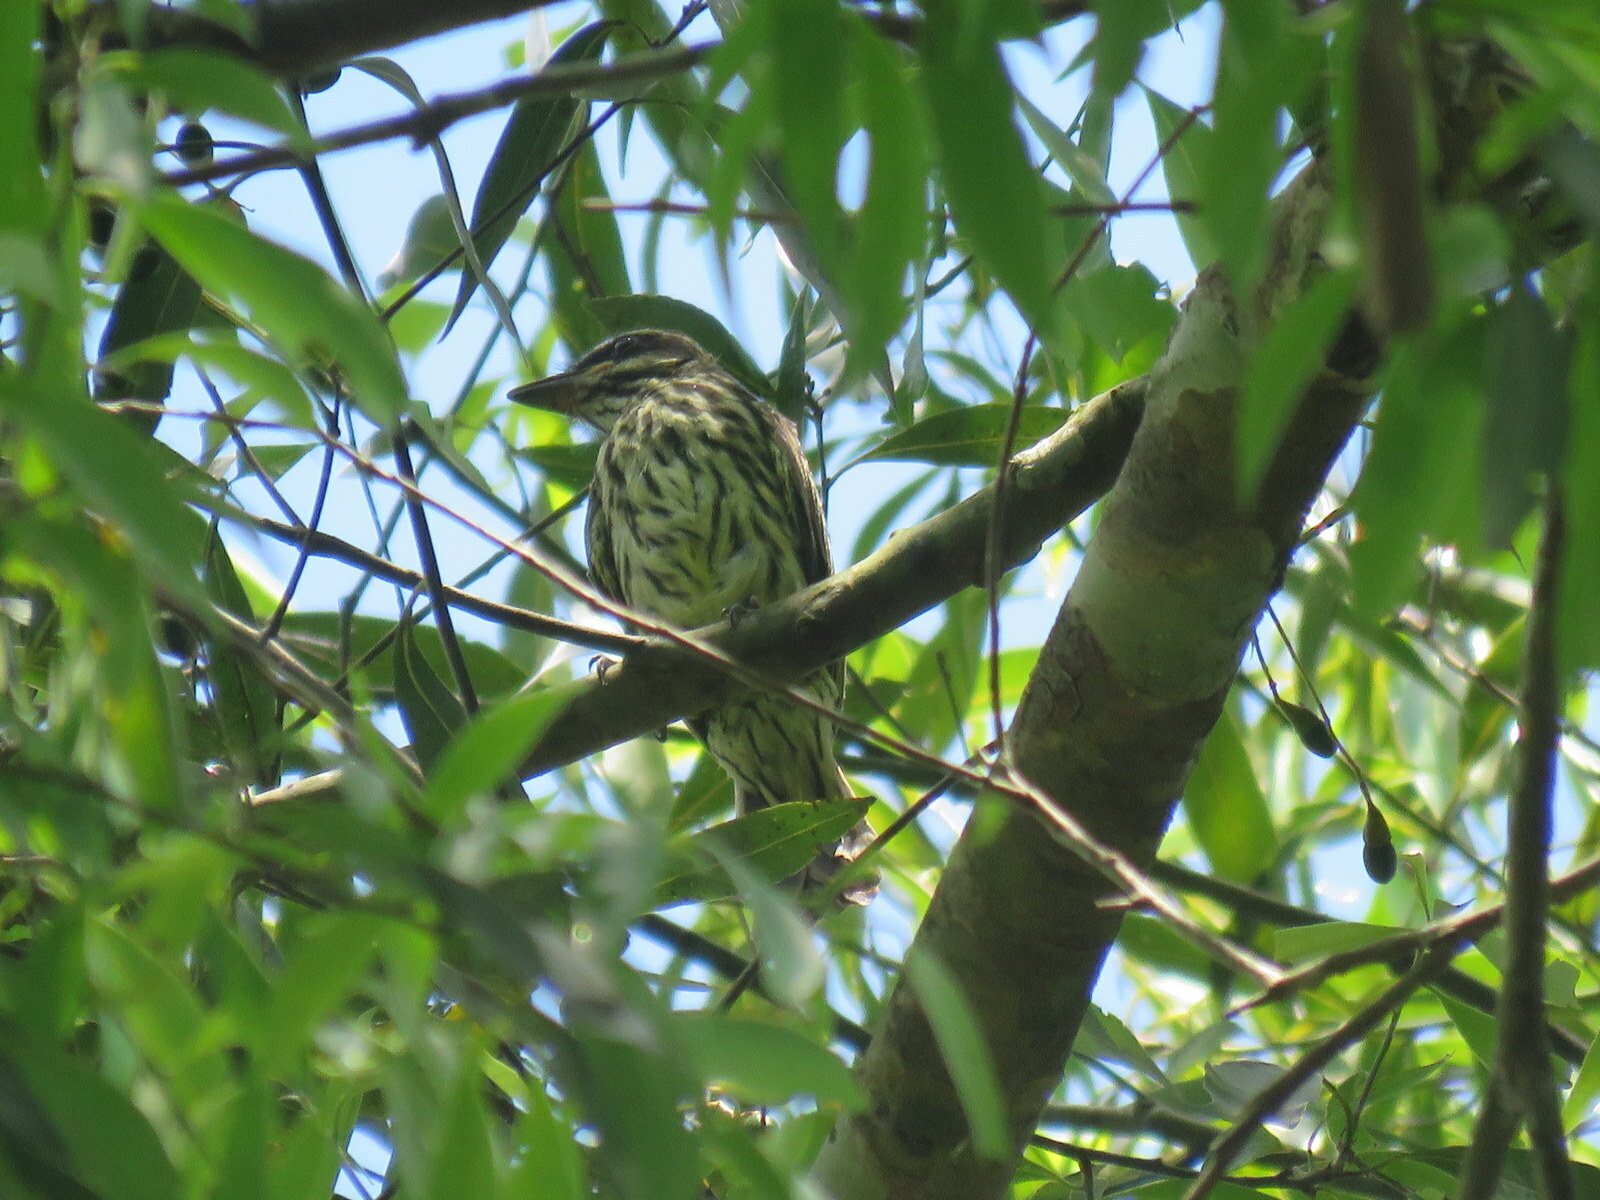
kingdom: Animalia
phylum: Chordata
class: Aves
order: Passeriformes
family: Tyrannidae
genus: Myiodynastes
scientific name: Myiodynastes maculatus
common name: Streaked flycatcher
